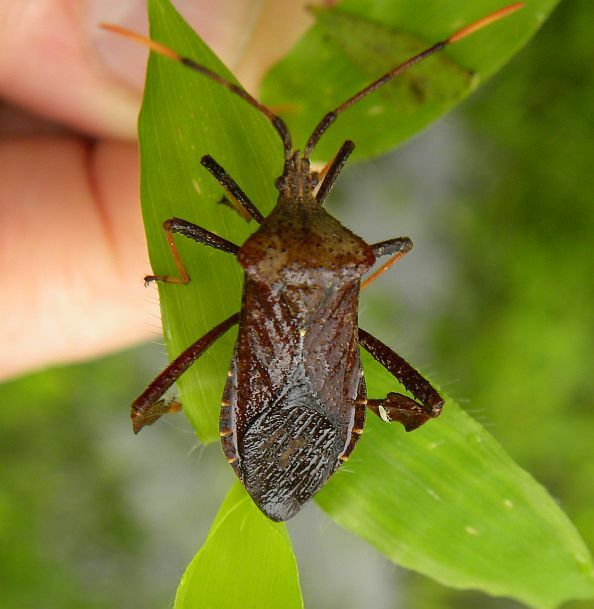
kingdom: Animalia
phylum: Arthropoda
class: Insecta
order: Hemiptera
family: Coreidae
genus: Acanthocephala
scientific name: Acanthocephala terminalis
